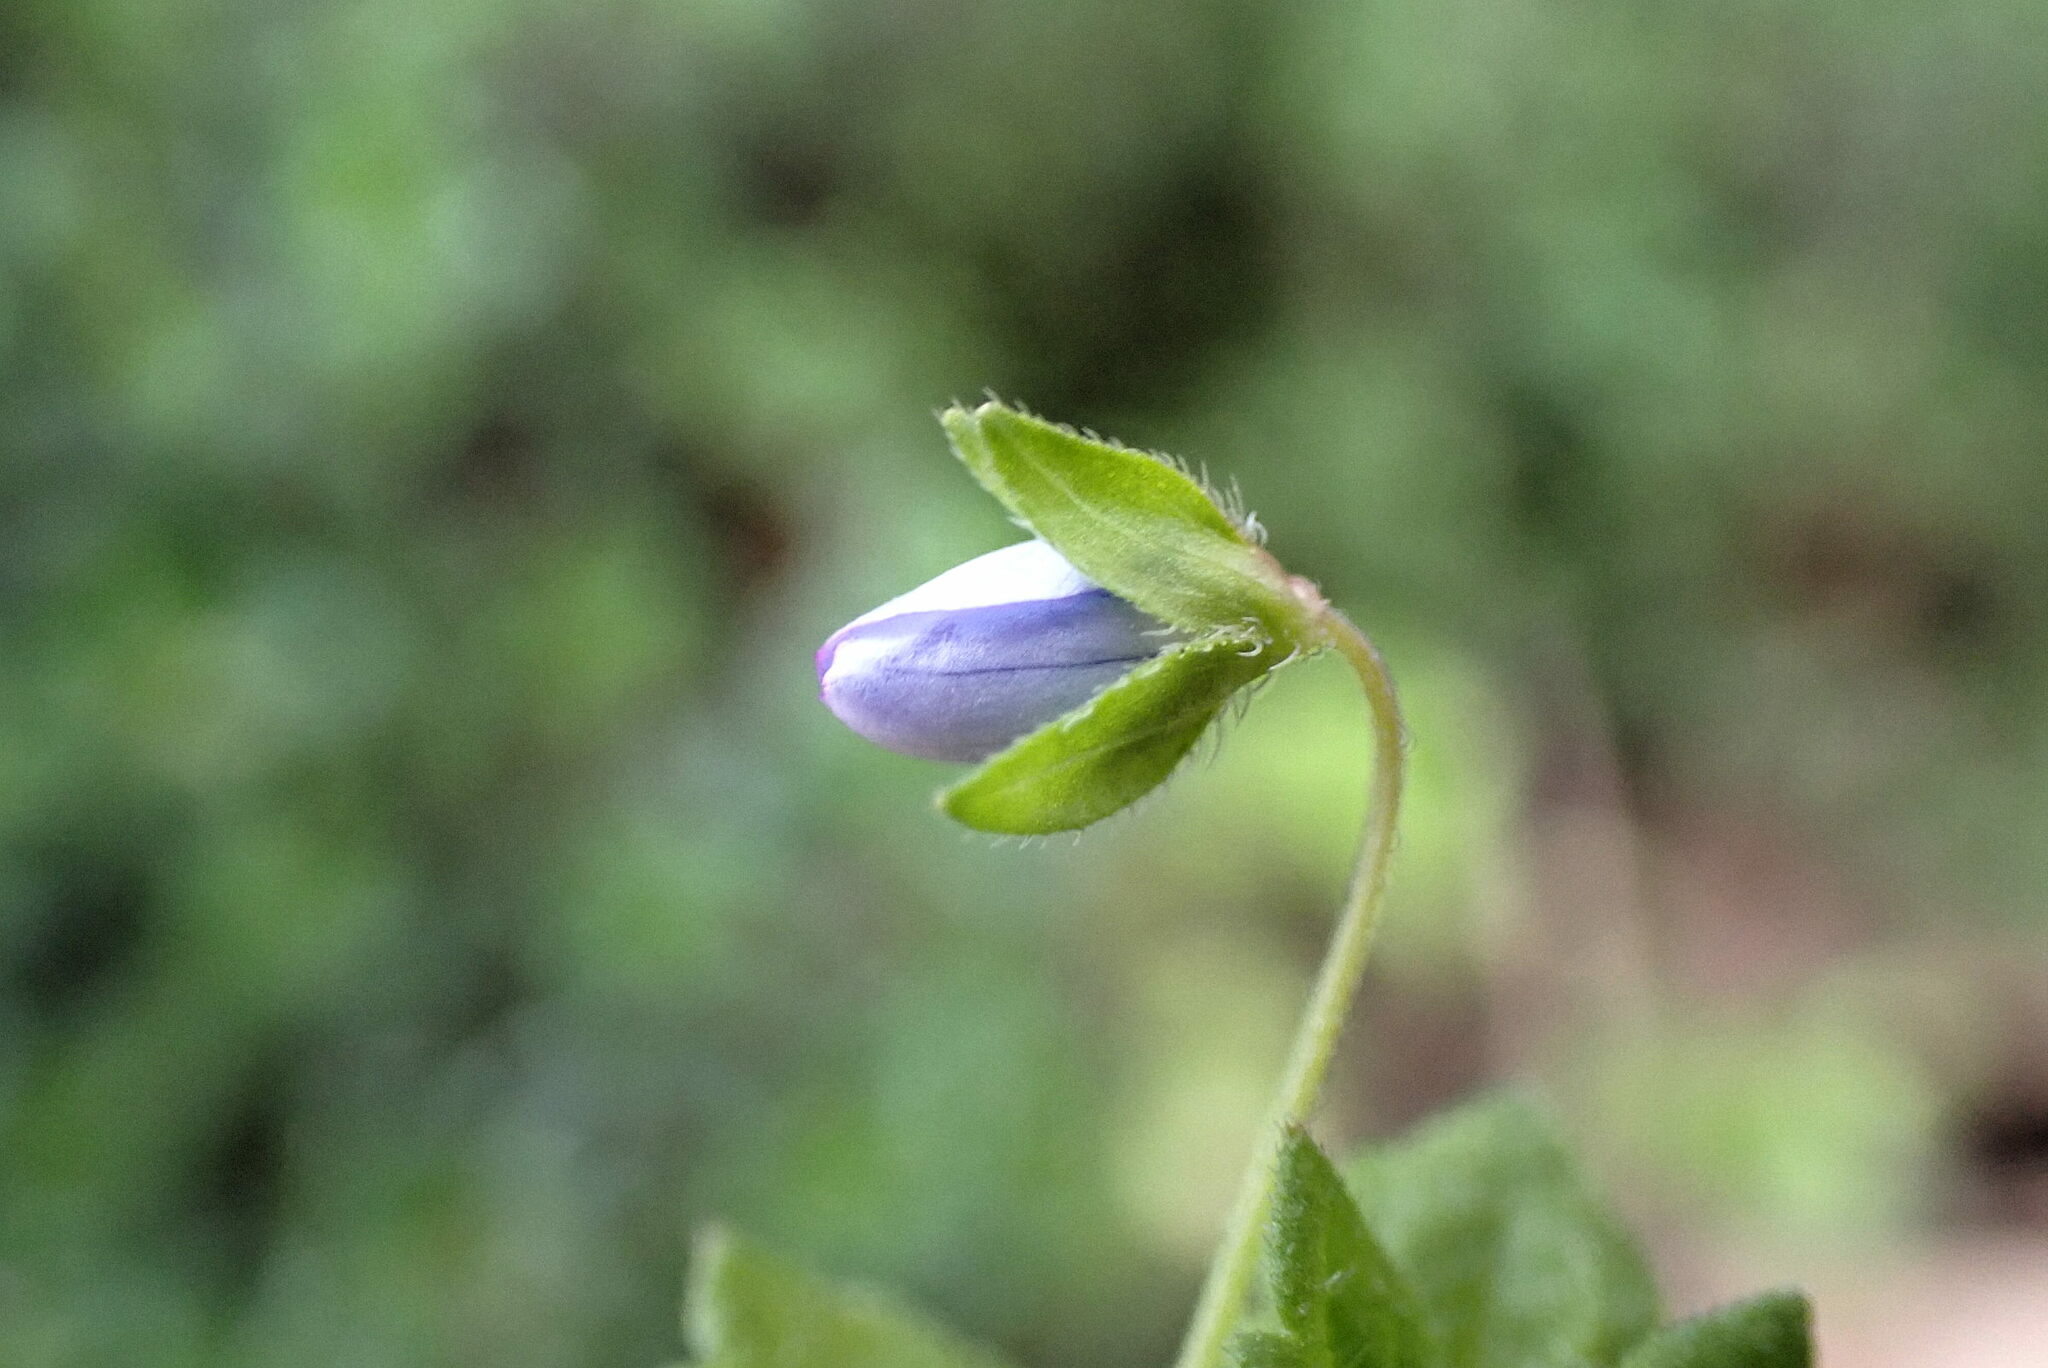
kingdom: Plantae
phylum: Tracheophyta
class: Magnoliopsida
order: Lamiales
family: Plantaginaceae
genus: Veronica
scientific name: Veronica persica
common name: Common field-speedwell
